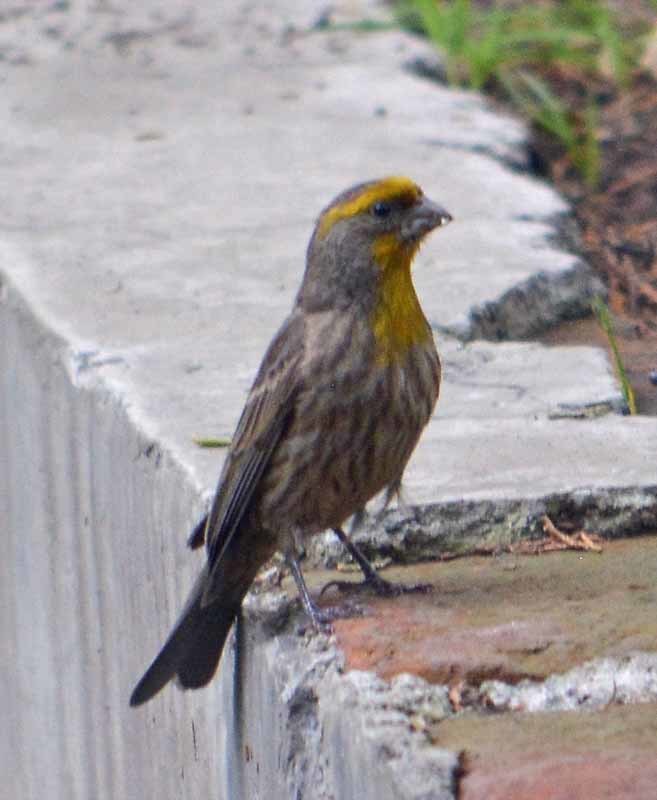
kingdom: Animalia
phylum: Chordata
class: Aves
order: Passeriformes
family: Fringillidae
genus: Haemorhous
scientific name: Haemorhous mexicanus
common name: House finch
